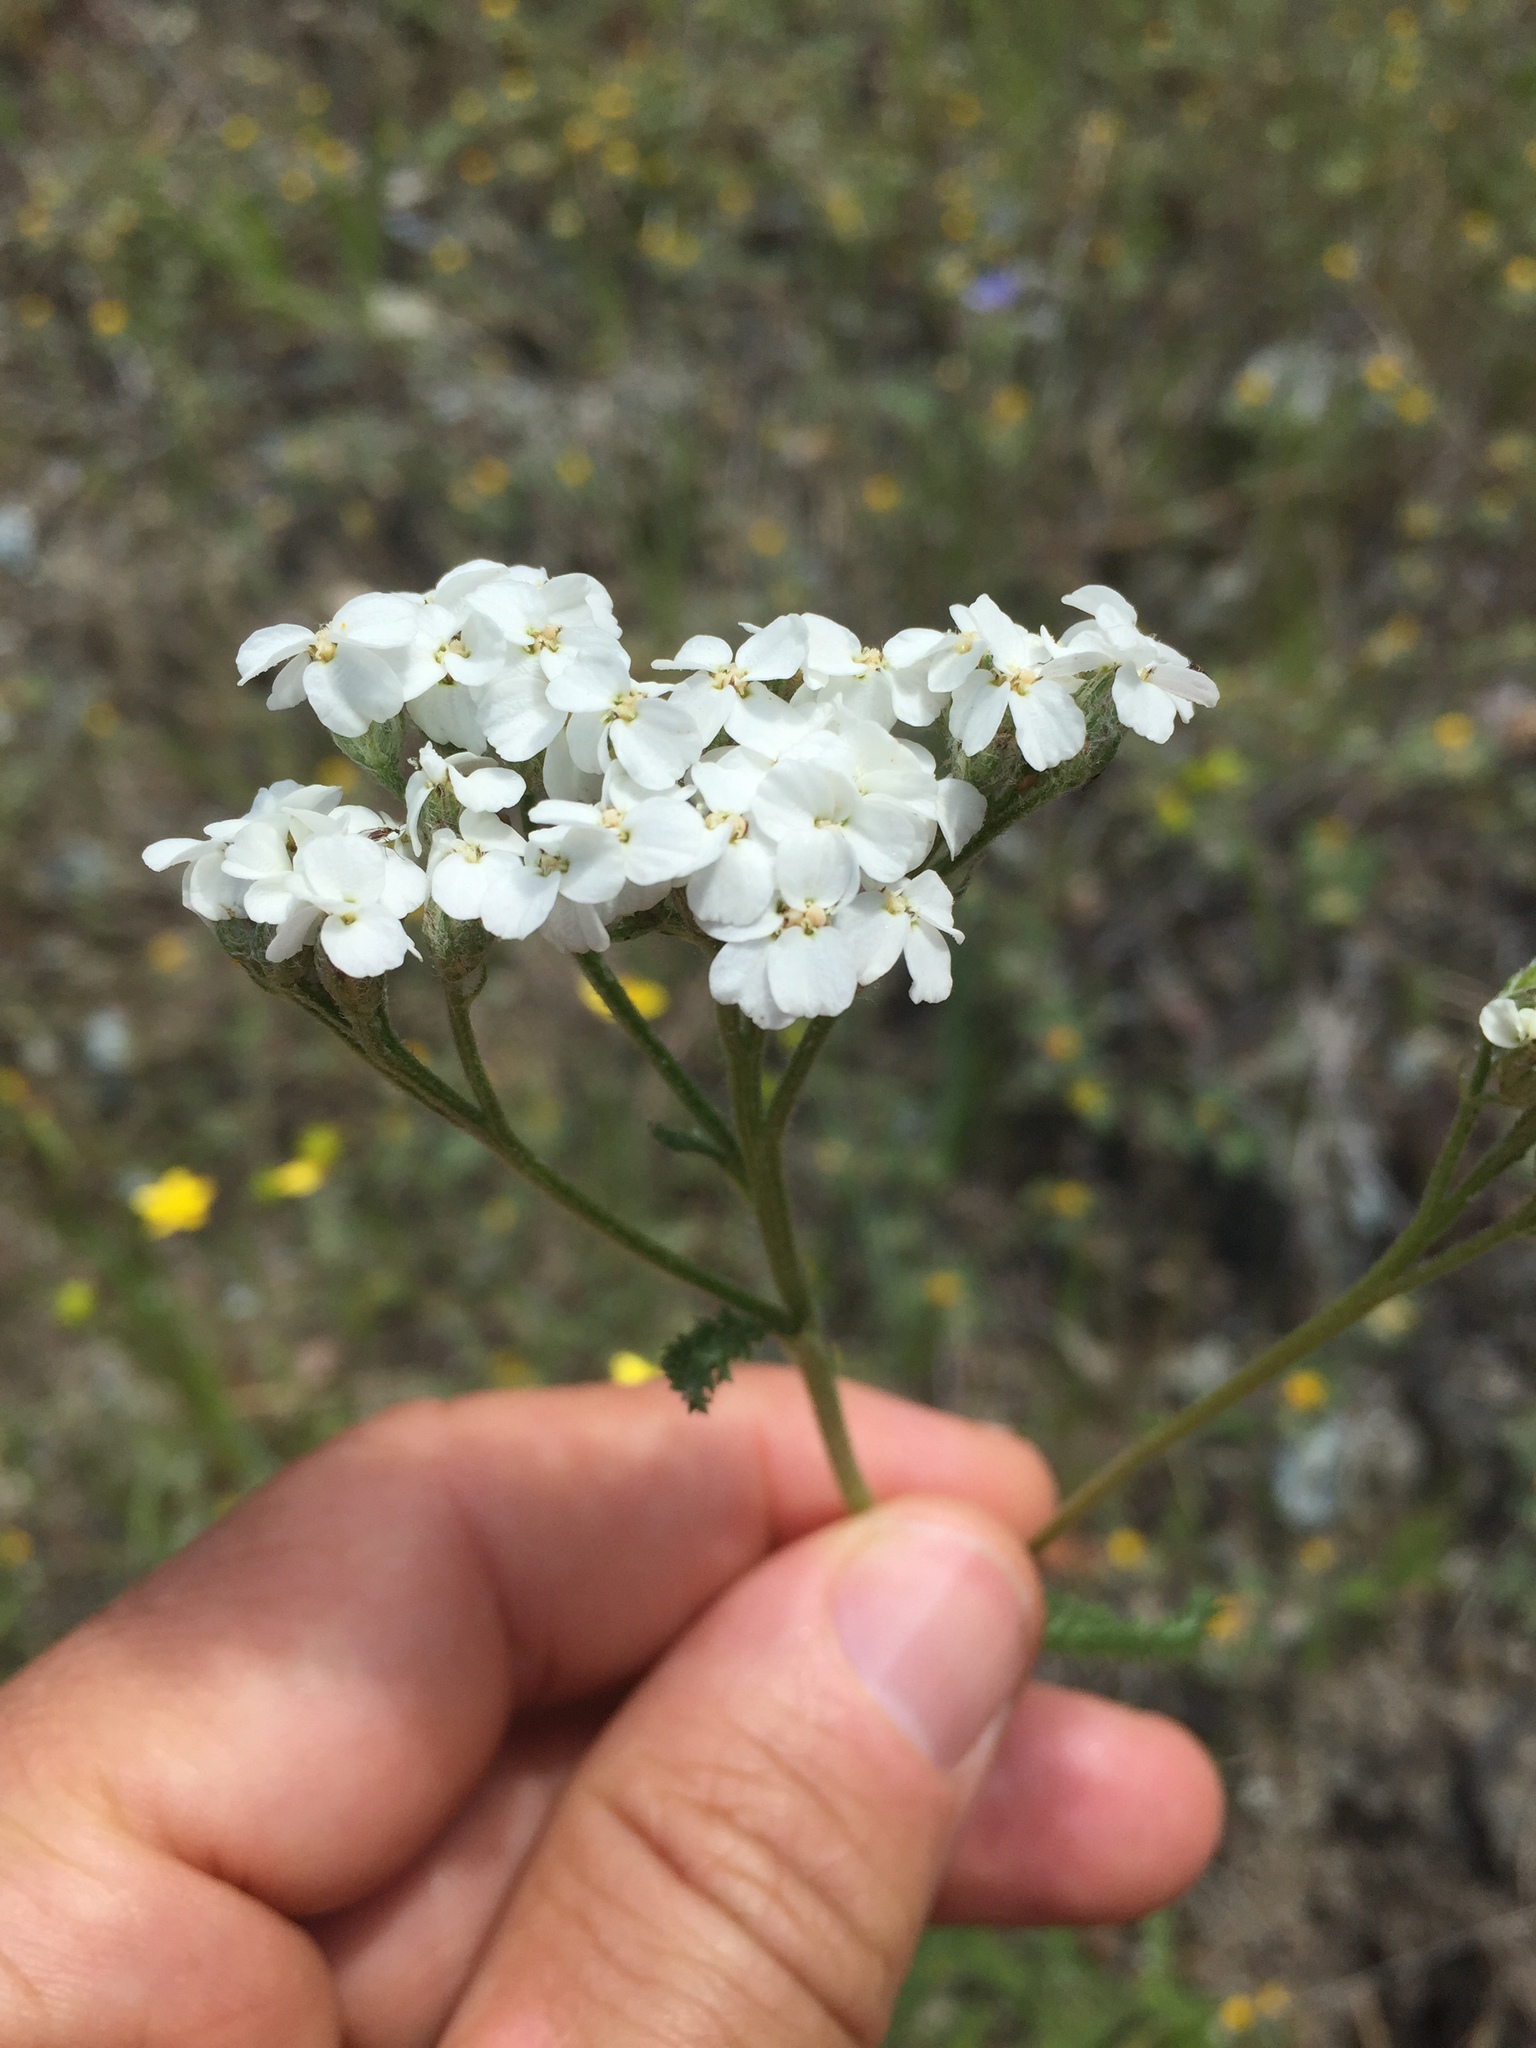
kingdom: Plantae
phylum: Tracheophyta
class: Magnoliopsida
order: Asterales
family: Asteraceae
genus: Achillea
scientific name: Achillea millefolium
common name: Yarrow
